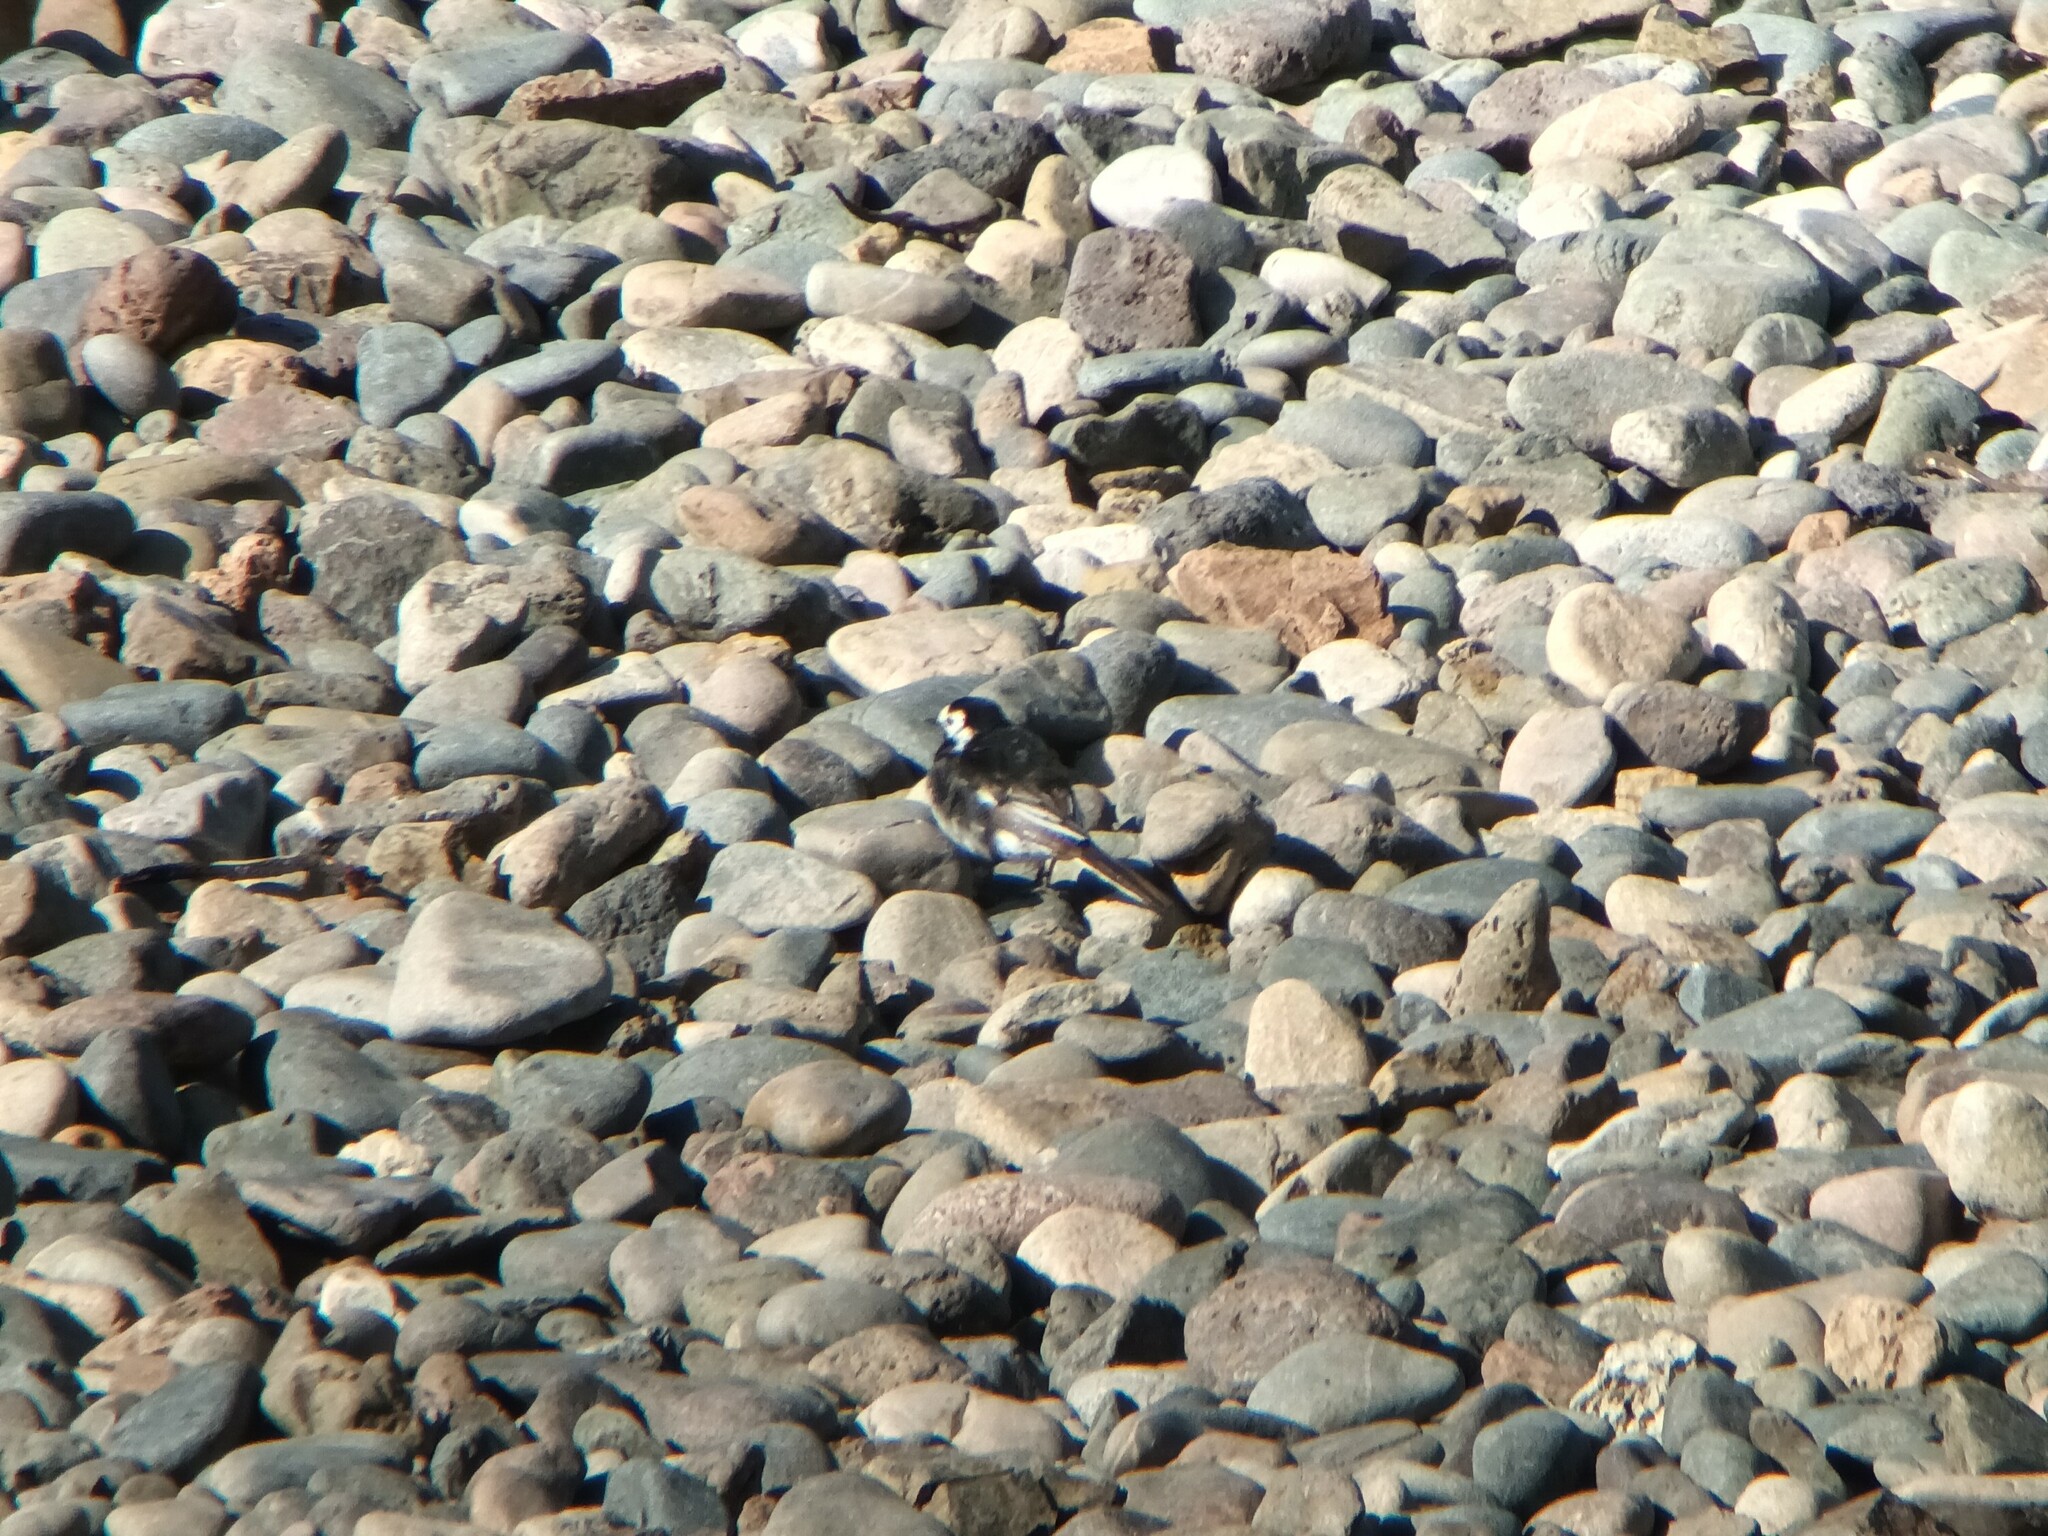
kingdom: Animalia
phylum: Chordata
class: Aves
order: Passeriformes
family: Motacillidae
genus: Motacilla
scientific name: Motacilla alba
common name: White wagtail
